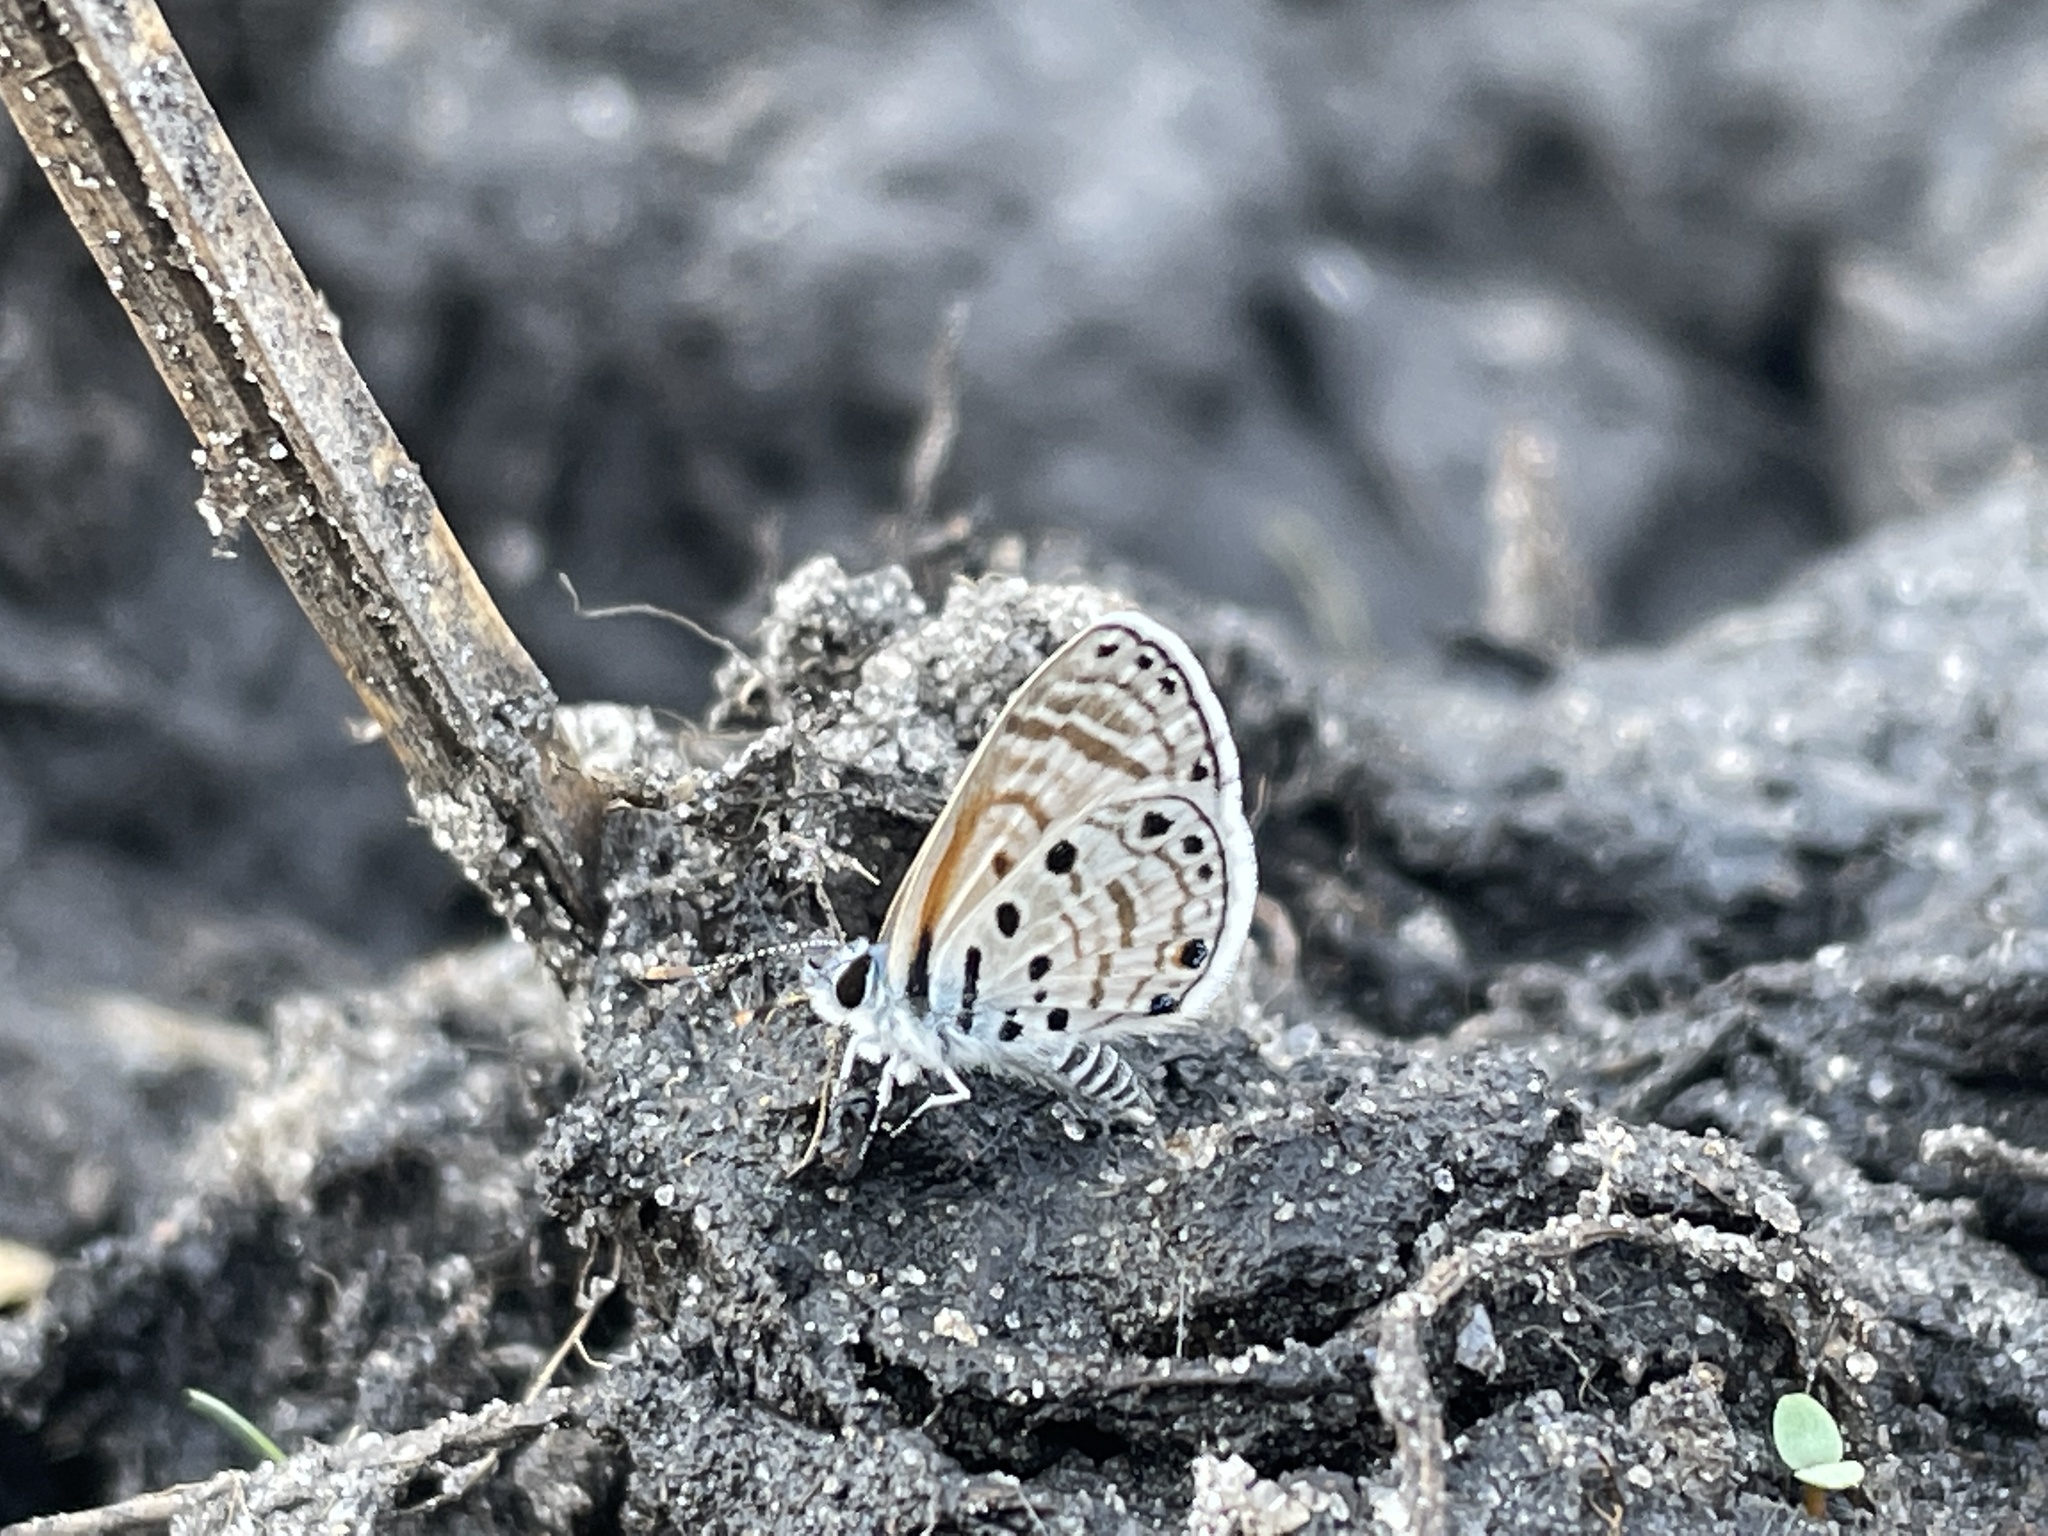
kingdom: Animalia
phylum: Arthropoda
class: Insecta
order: Lepidoptera
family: Lycaenidae
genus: Azanus
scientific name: Azanus jesous
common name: African babul blue
